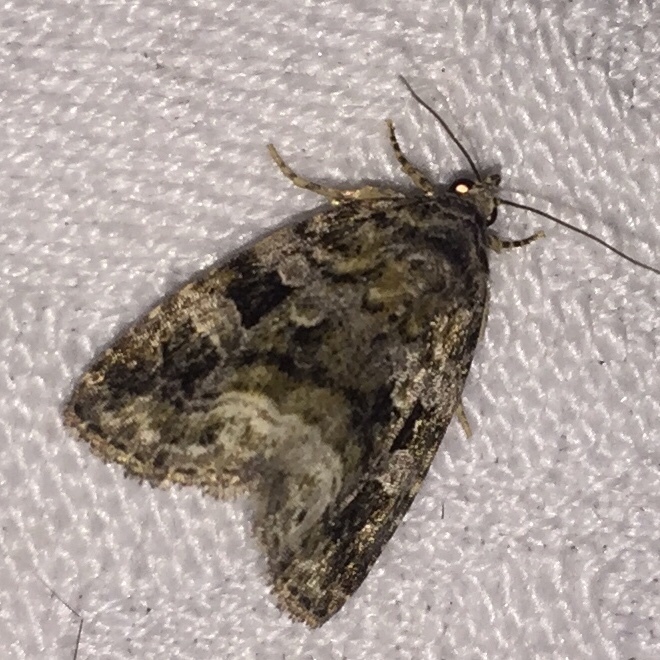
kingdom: Animalia
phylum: Arthropoda
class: Insecta
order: Lepidoptera
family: Noctuidae
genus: Protodeltote
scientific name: Protodeltote muscosula
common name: Large mossy glyph
